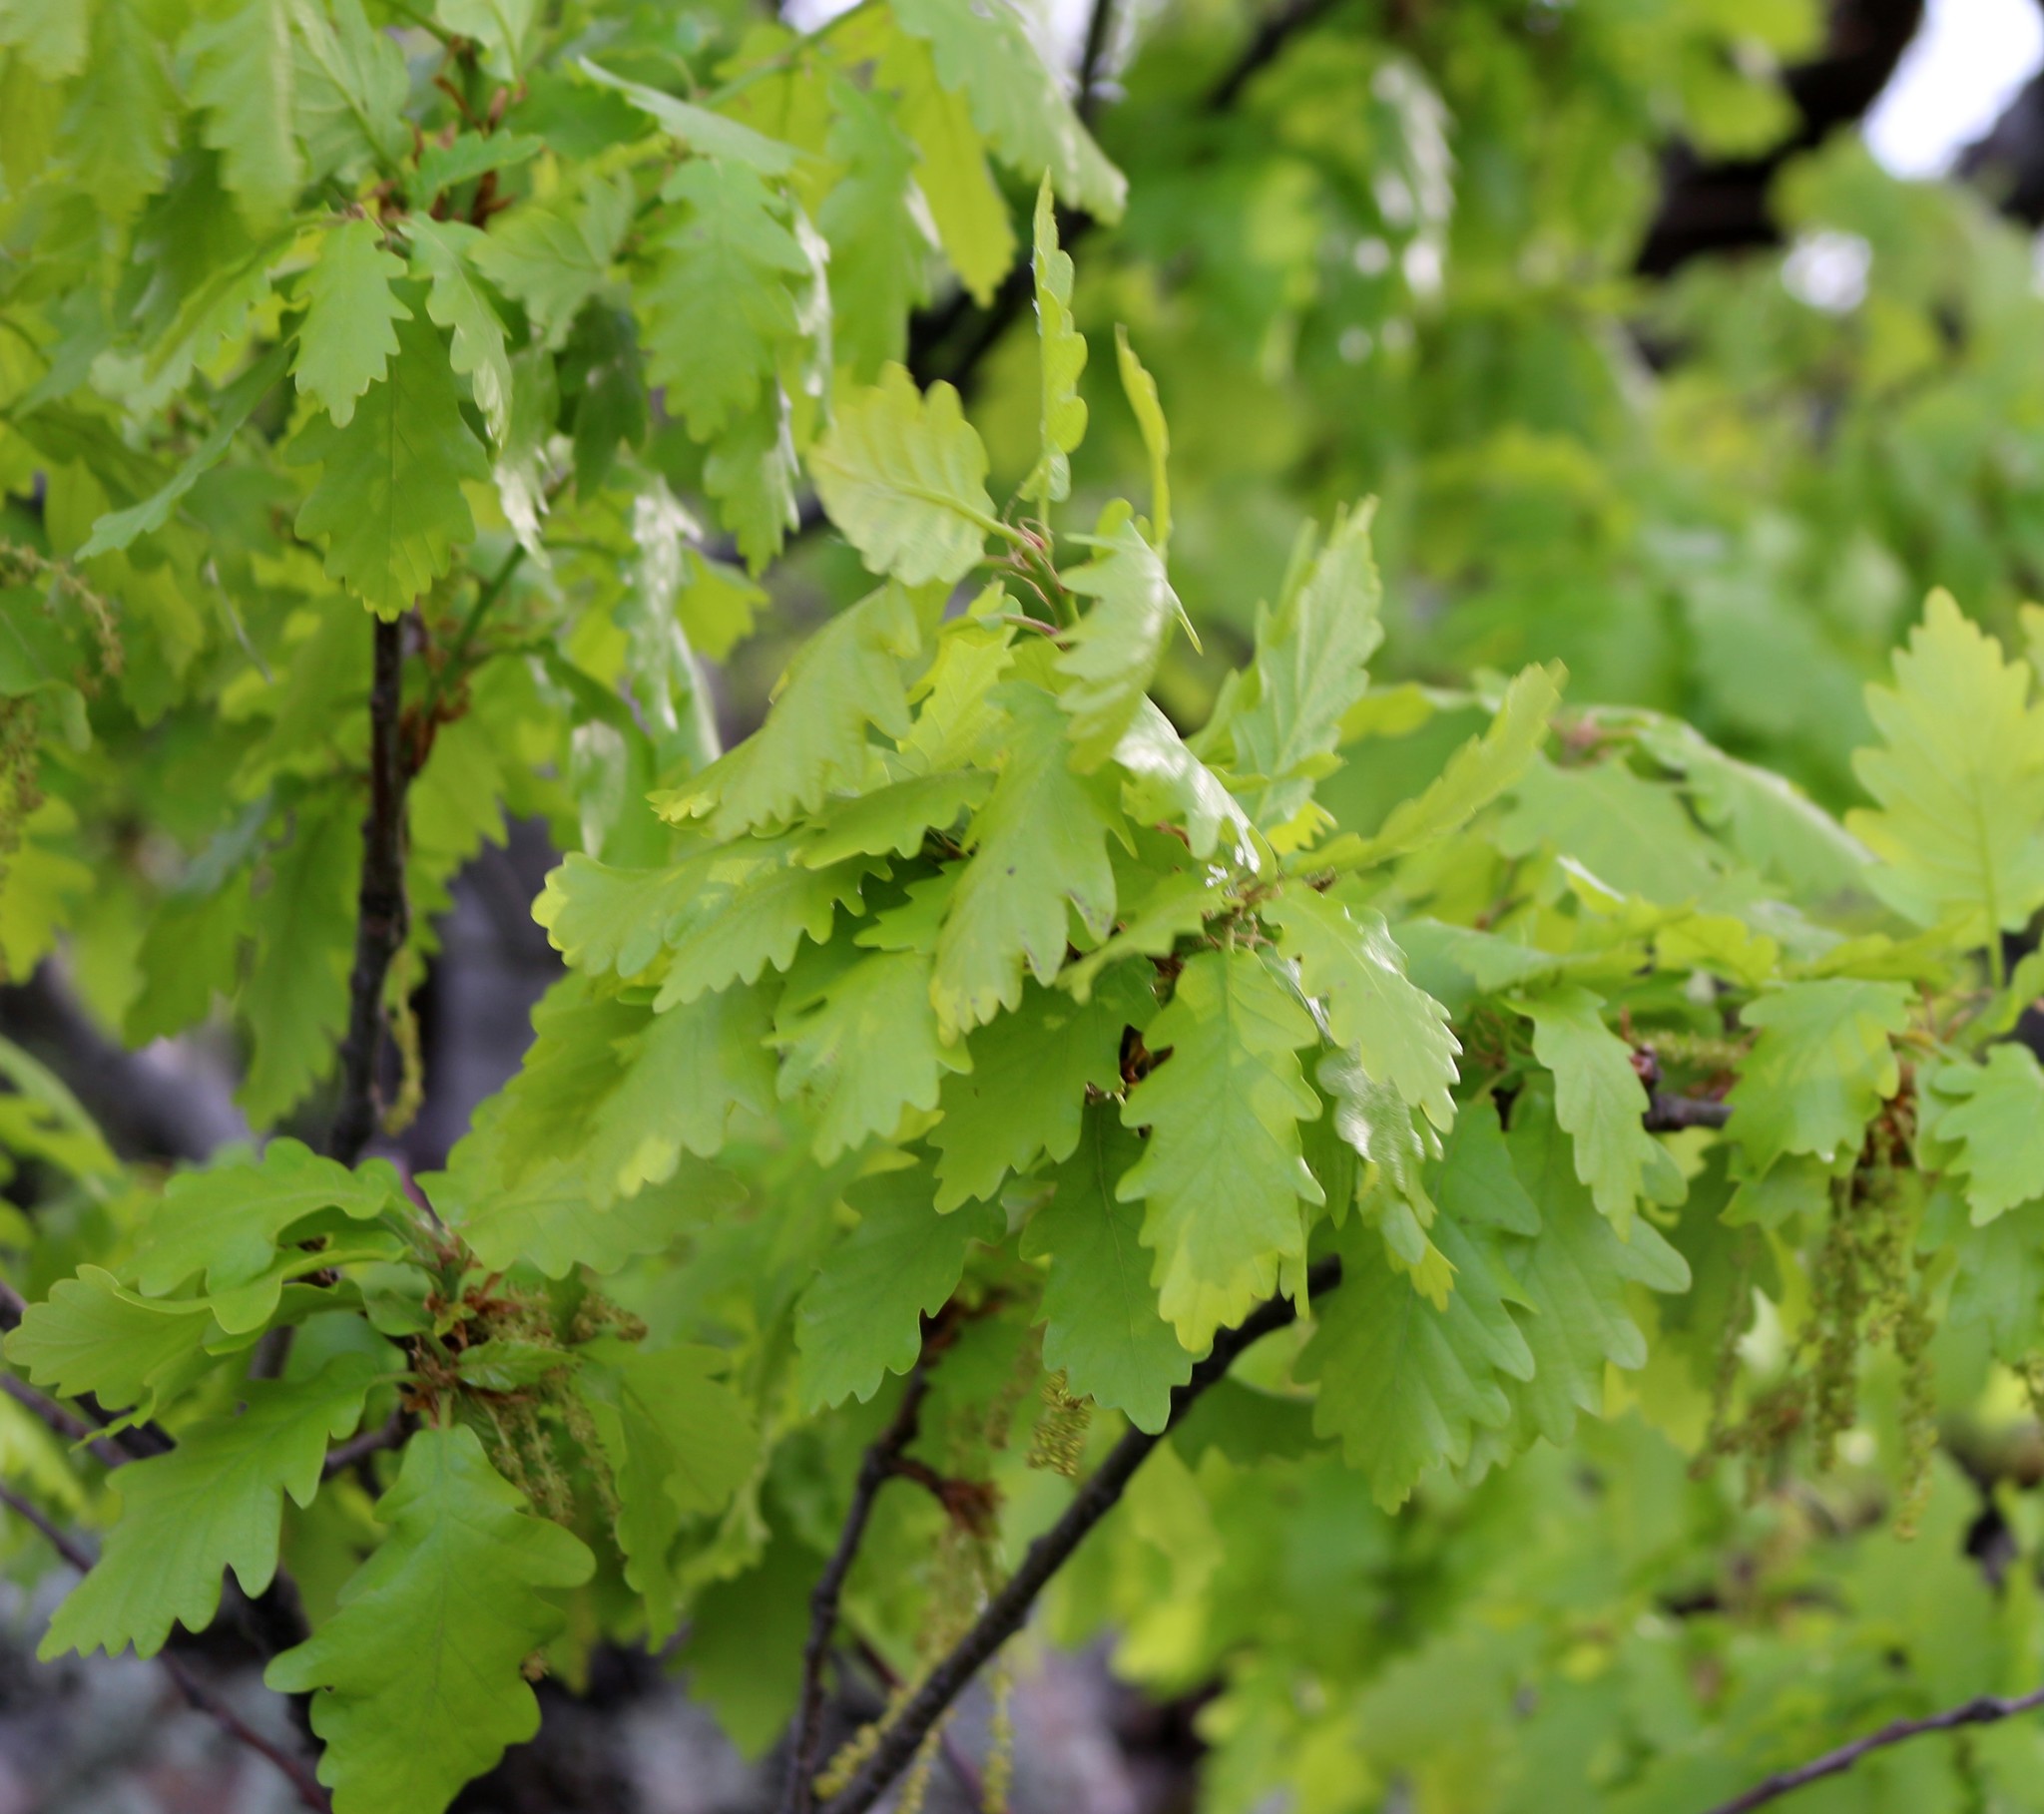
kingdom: Plantae
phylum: Tracheophyta
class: Magnoliopsida
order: Fagales
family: Fagaceae
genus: Quercus
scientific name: Quercus macranthera
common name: Caucasian oak
